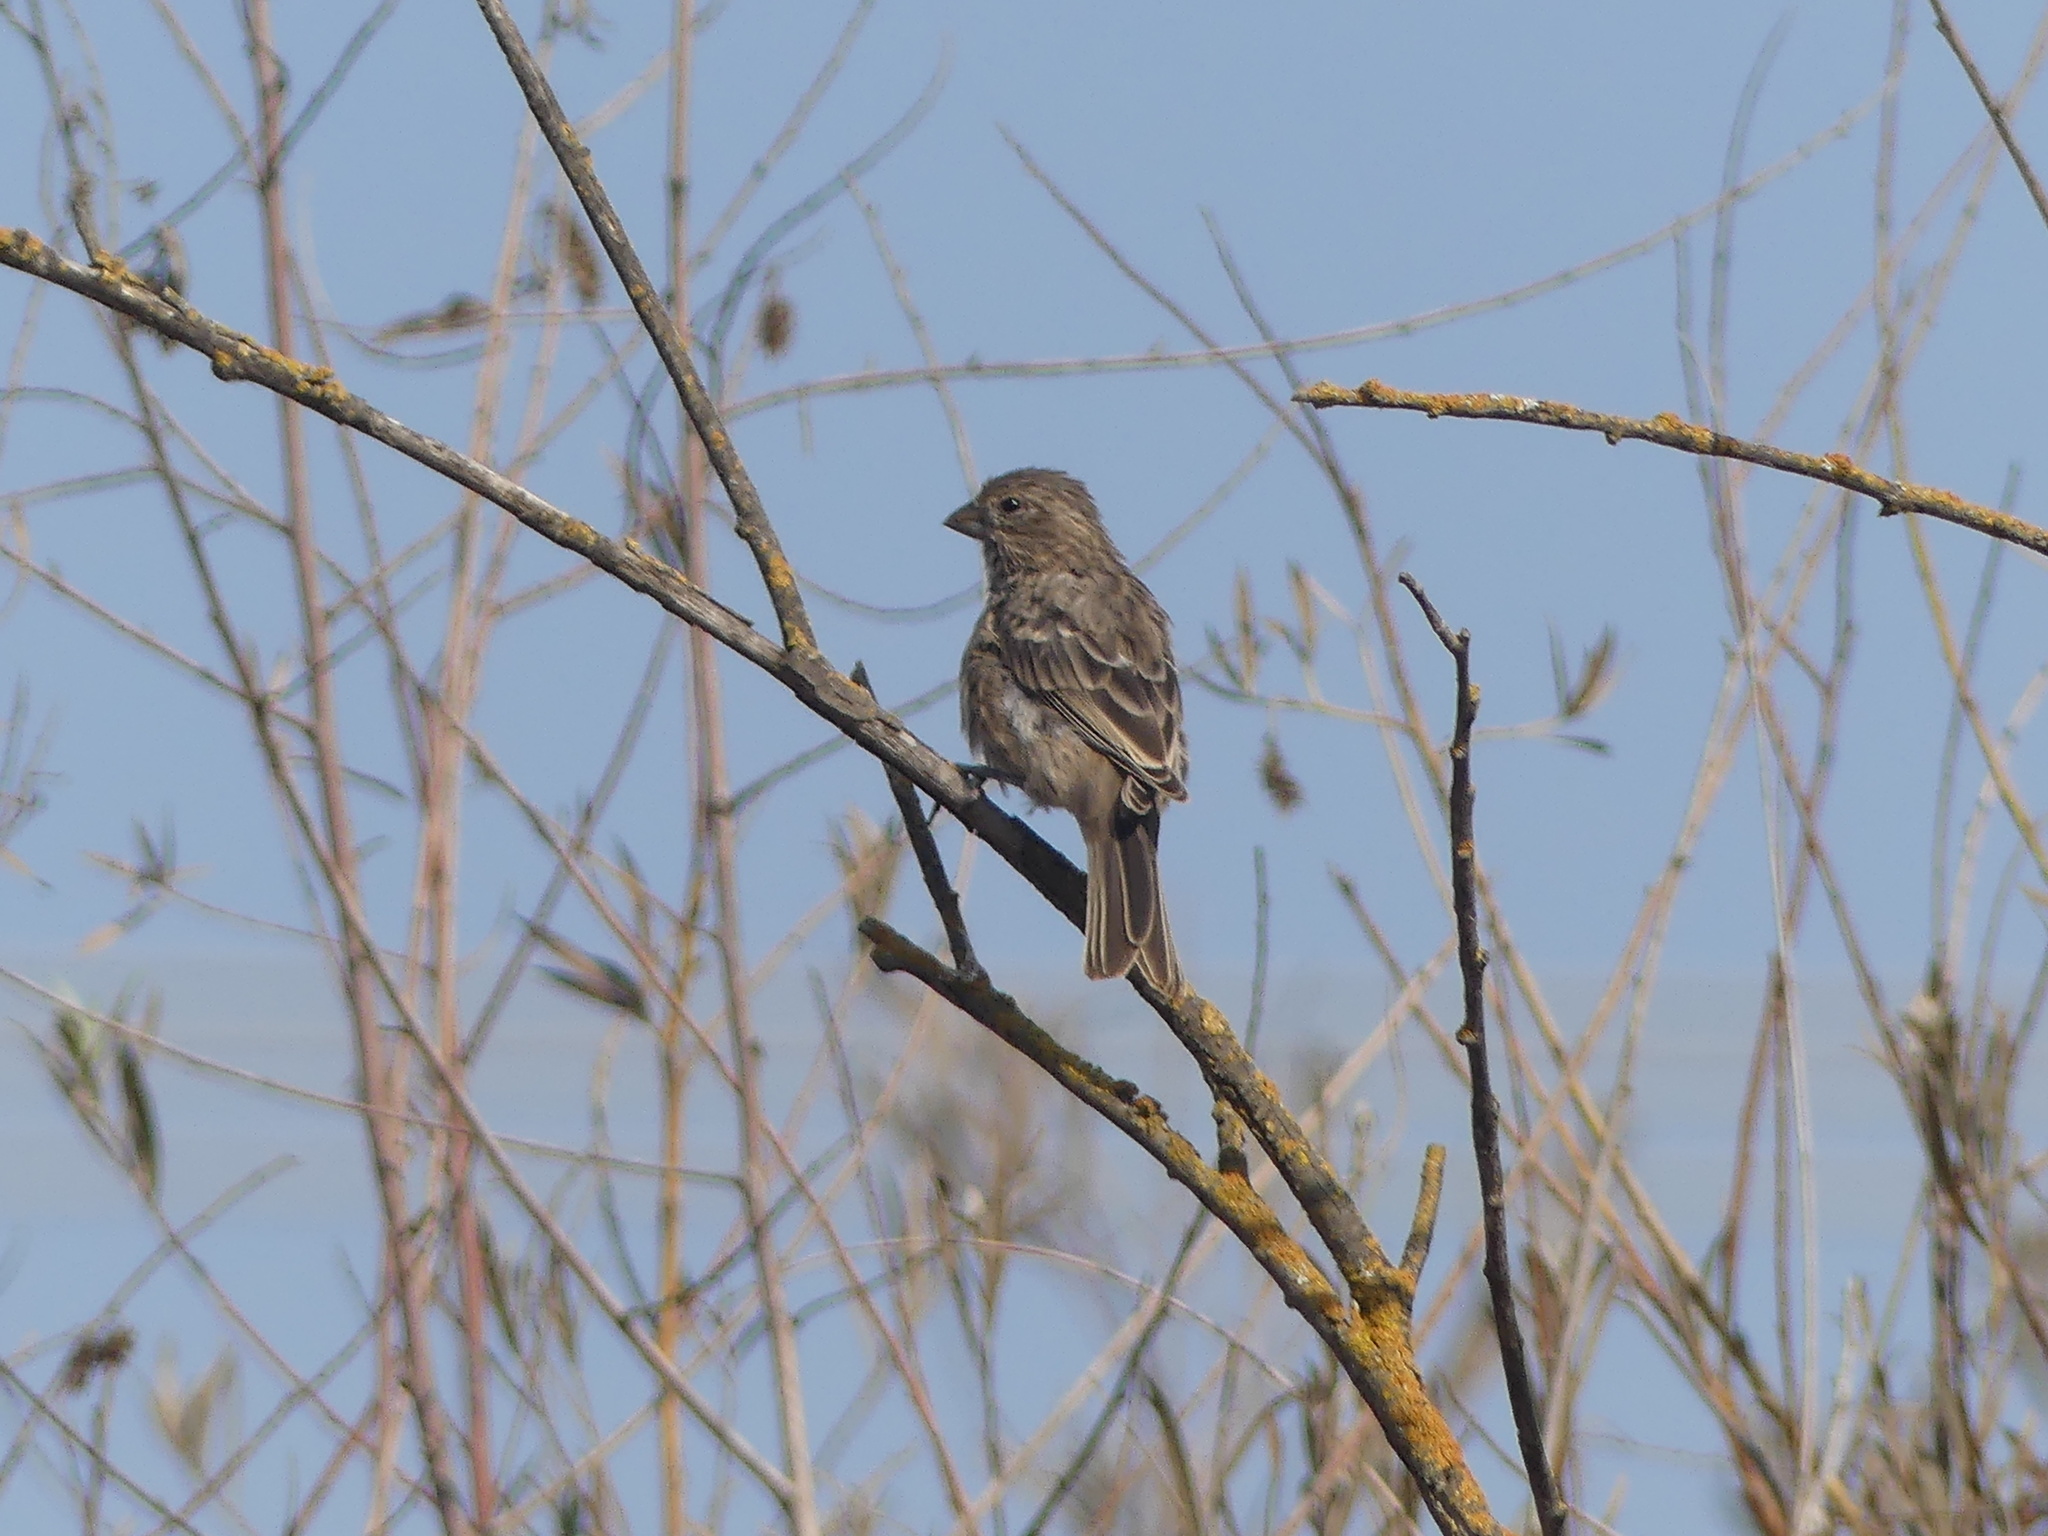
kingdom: Animalia
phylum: Chordata
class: Aves
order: Passeriformes
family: Fringillidae
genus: Haemorhous
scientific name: Haemorhous mexicanus
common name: House finch
